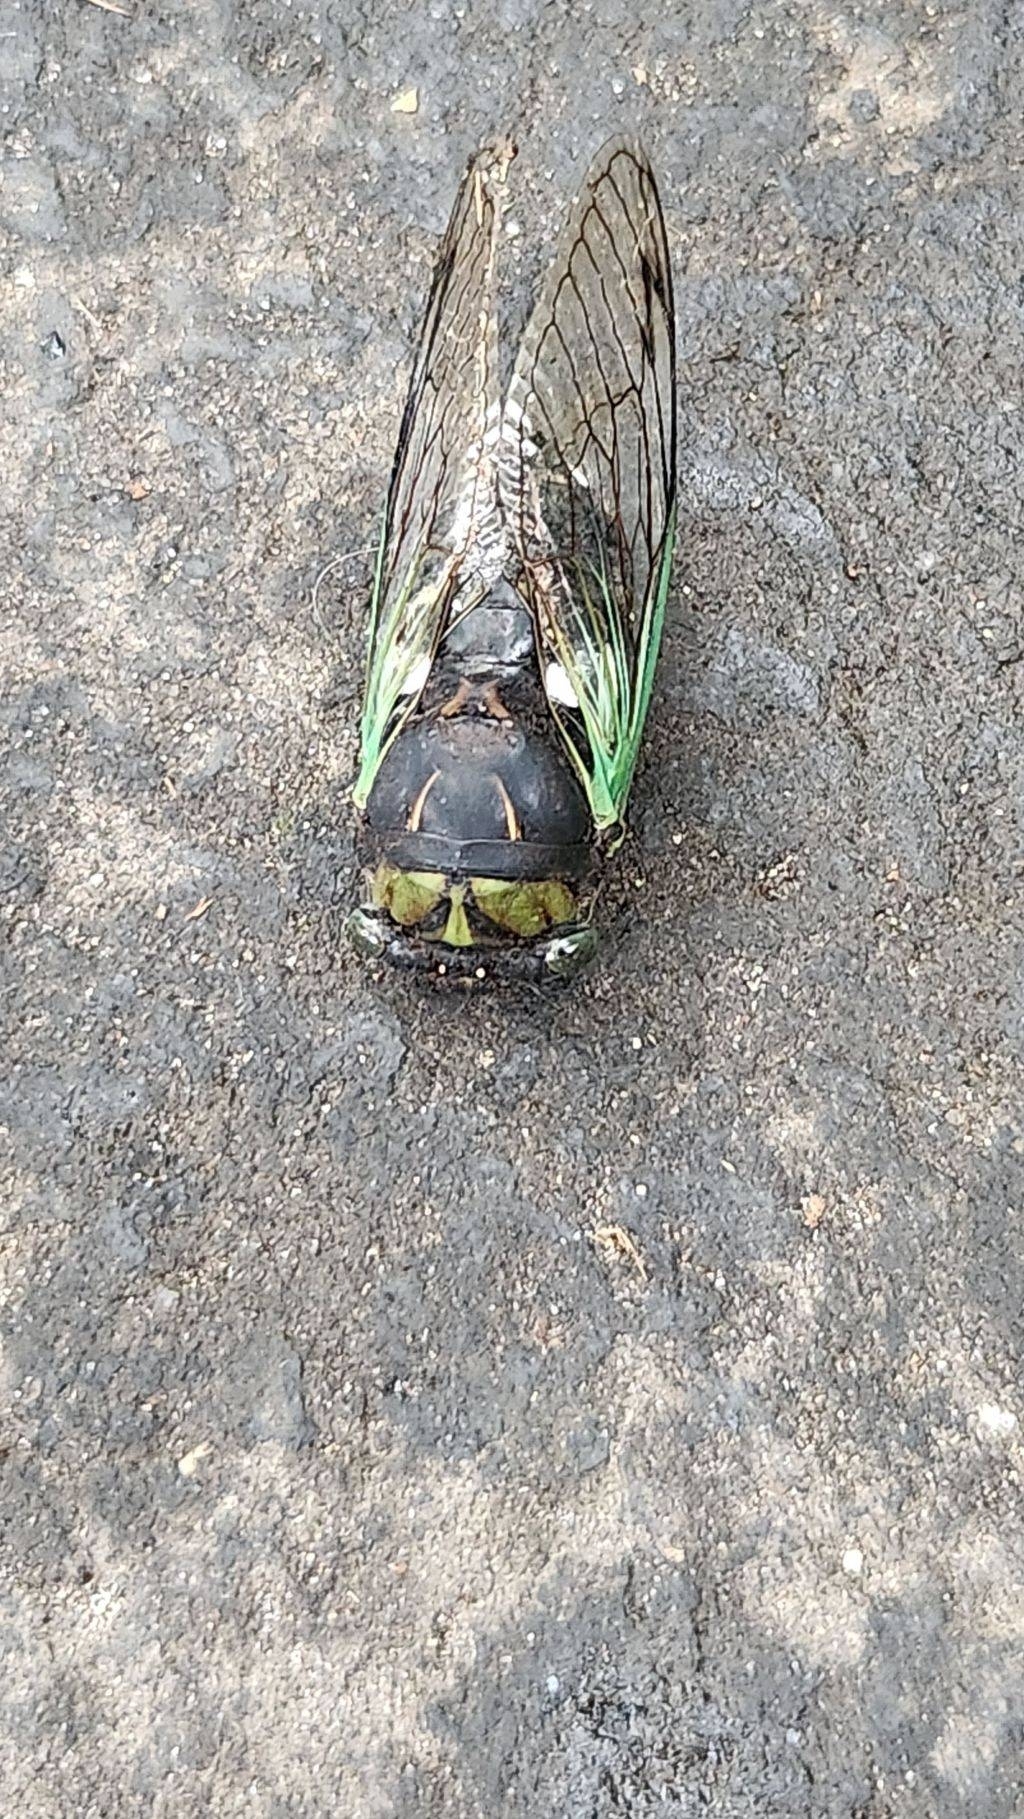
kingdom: Animalia
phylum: Arthropoda
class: Insecta
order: Hemiptera
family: Cicadidae
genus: Neotibicen
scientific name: Neotibicen tibicen
